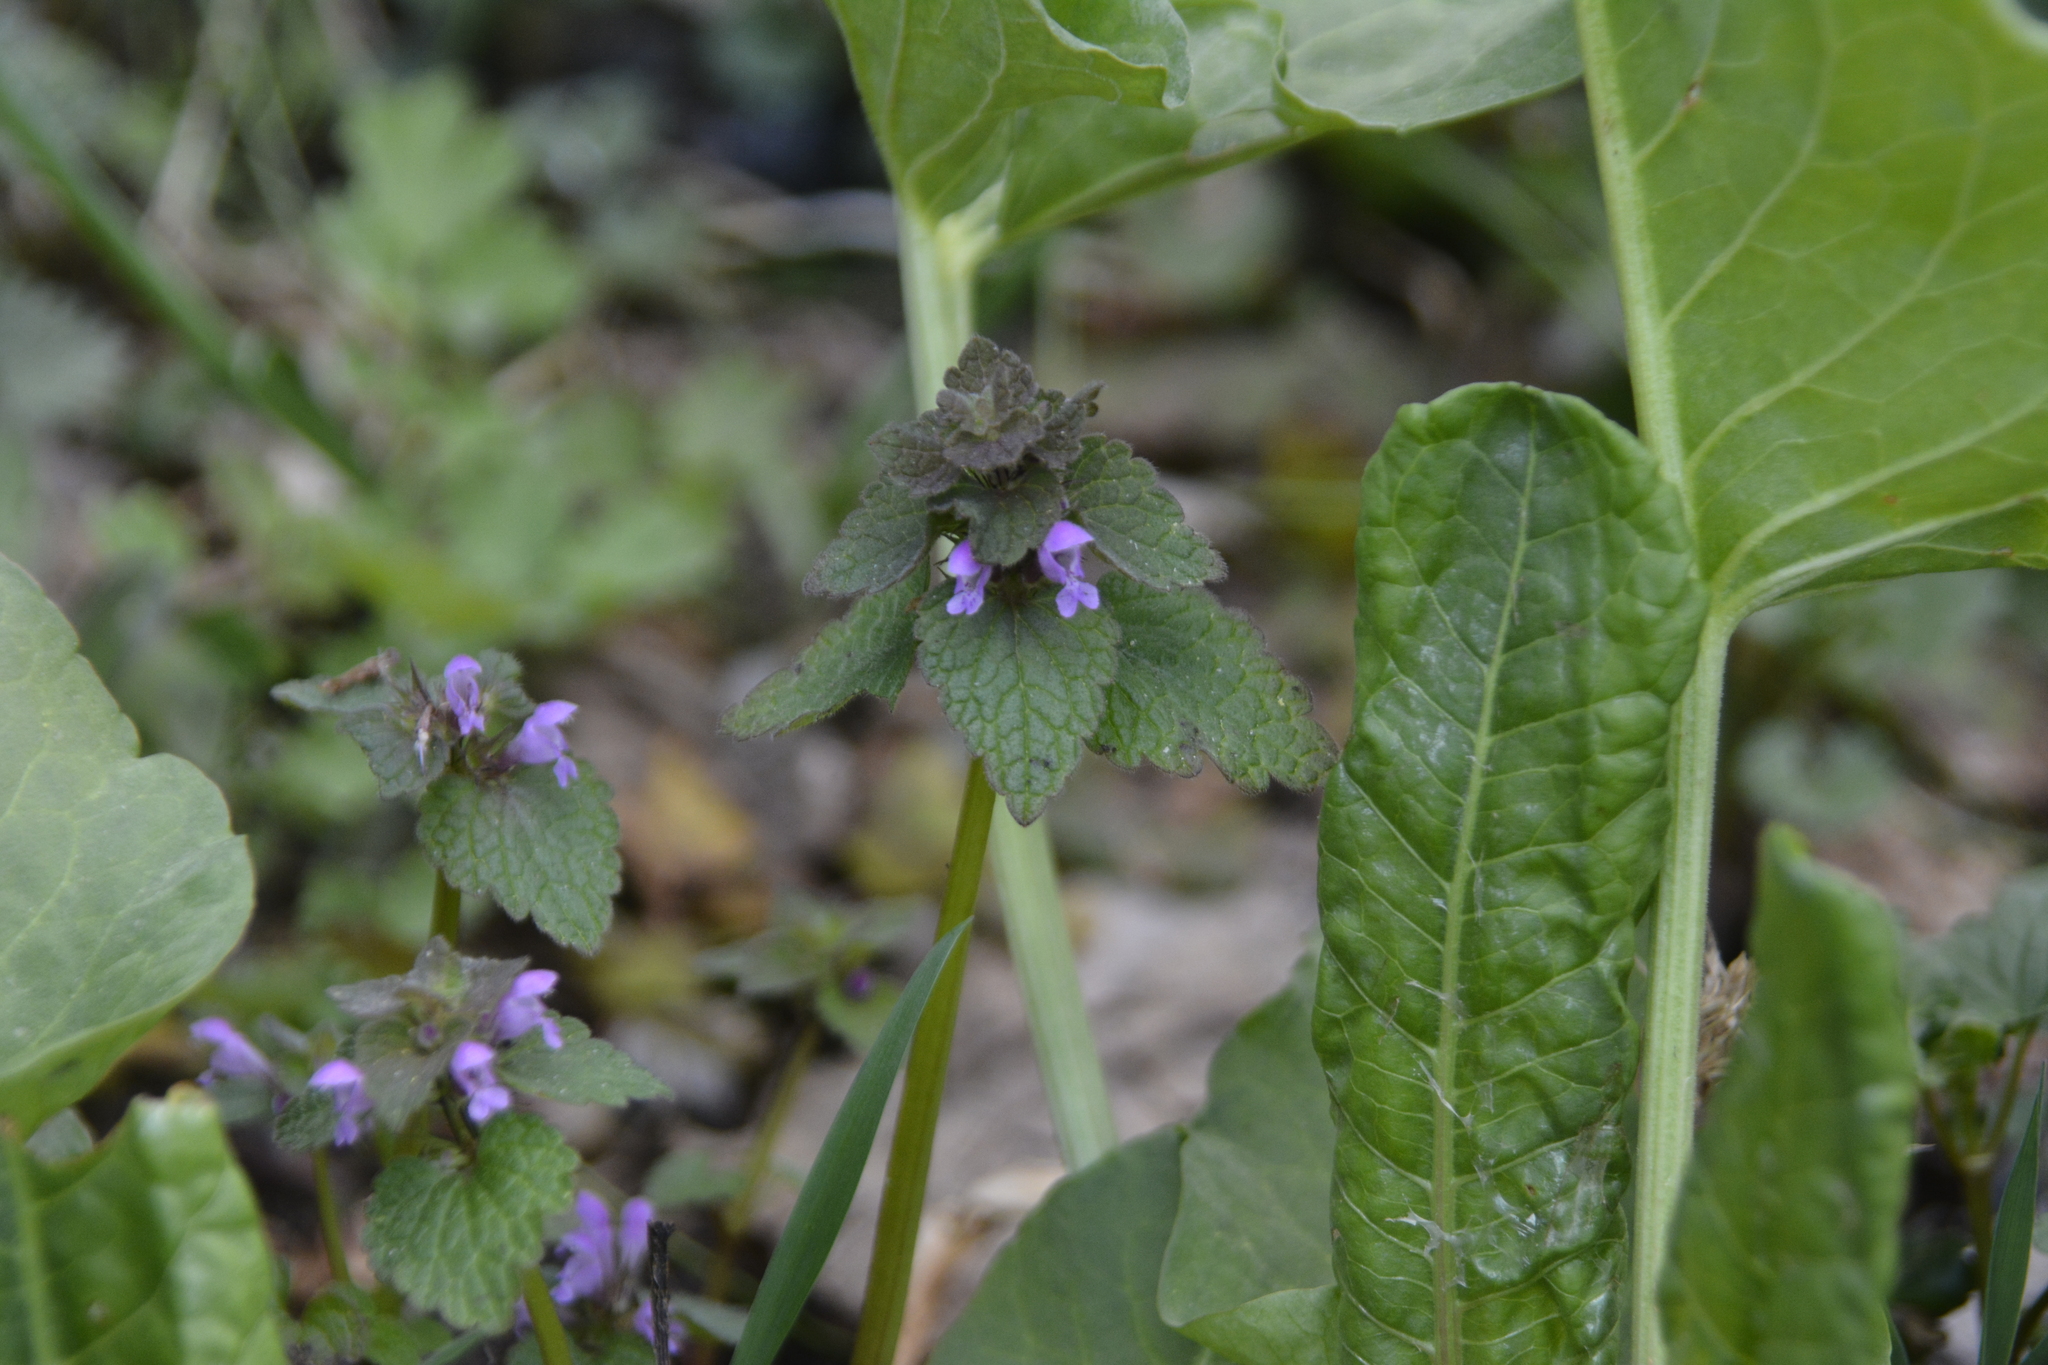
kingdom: Plantae
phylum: Tracheophyta
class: Magnoliopsida
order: Lamiales
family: Lamiaceae
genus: Lamium
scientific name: Lamium purpureum
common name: Red dead-nettle
